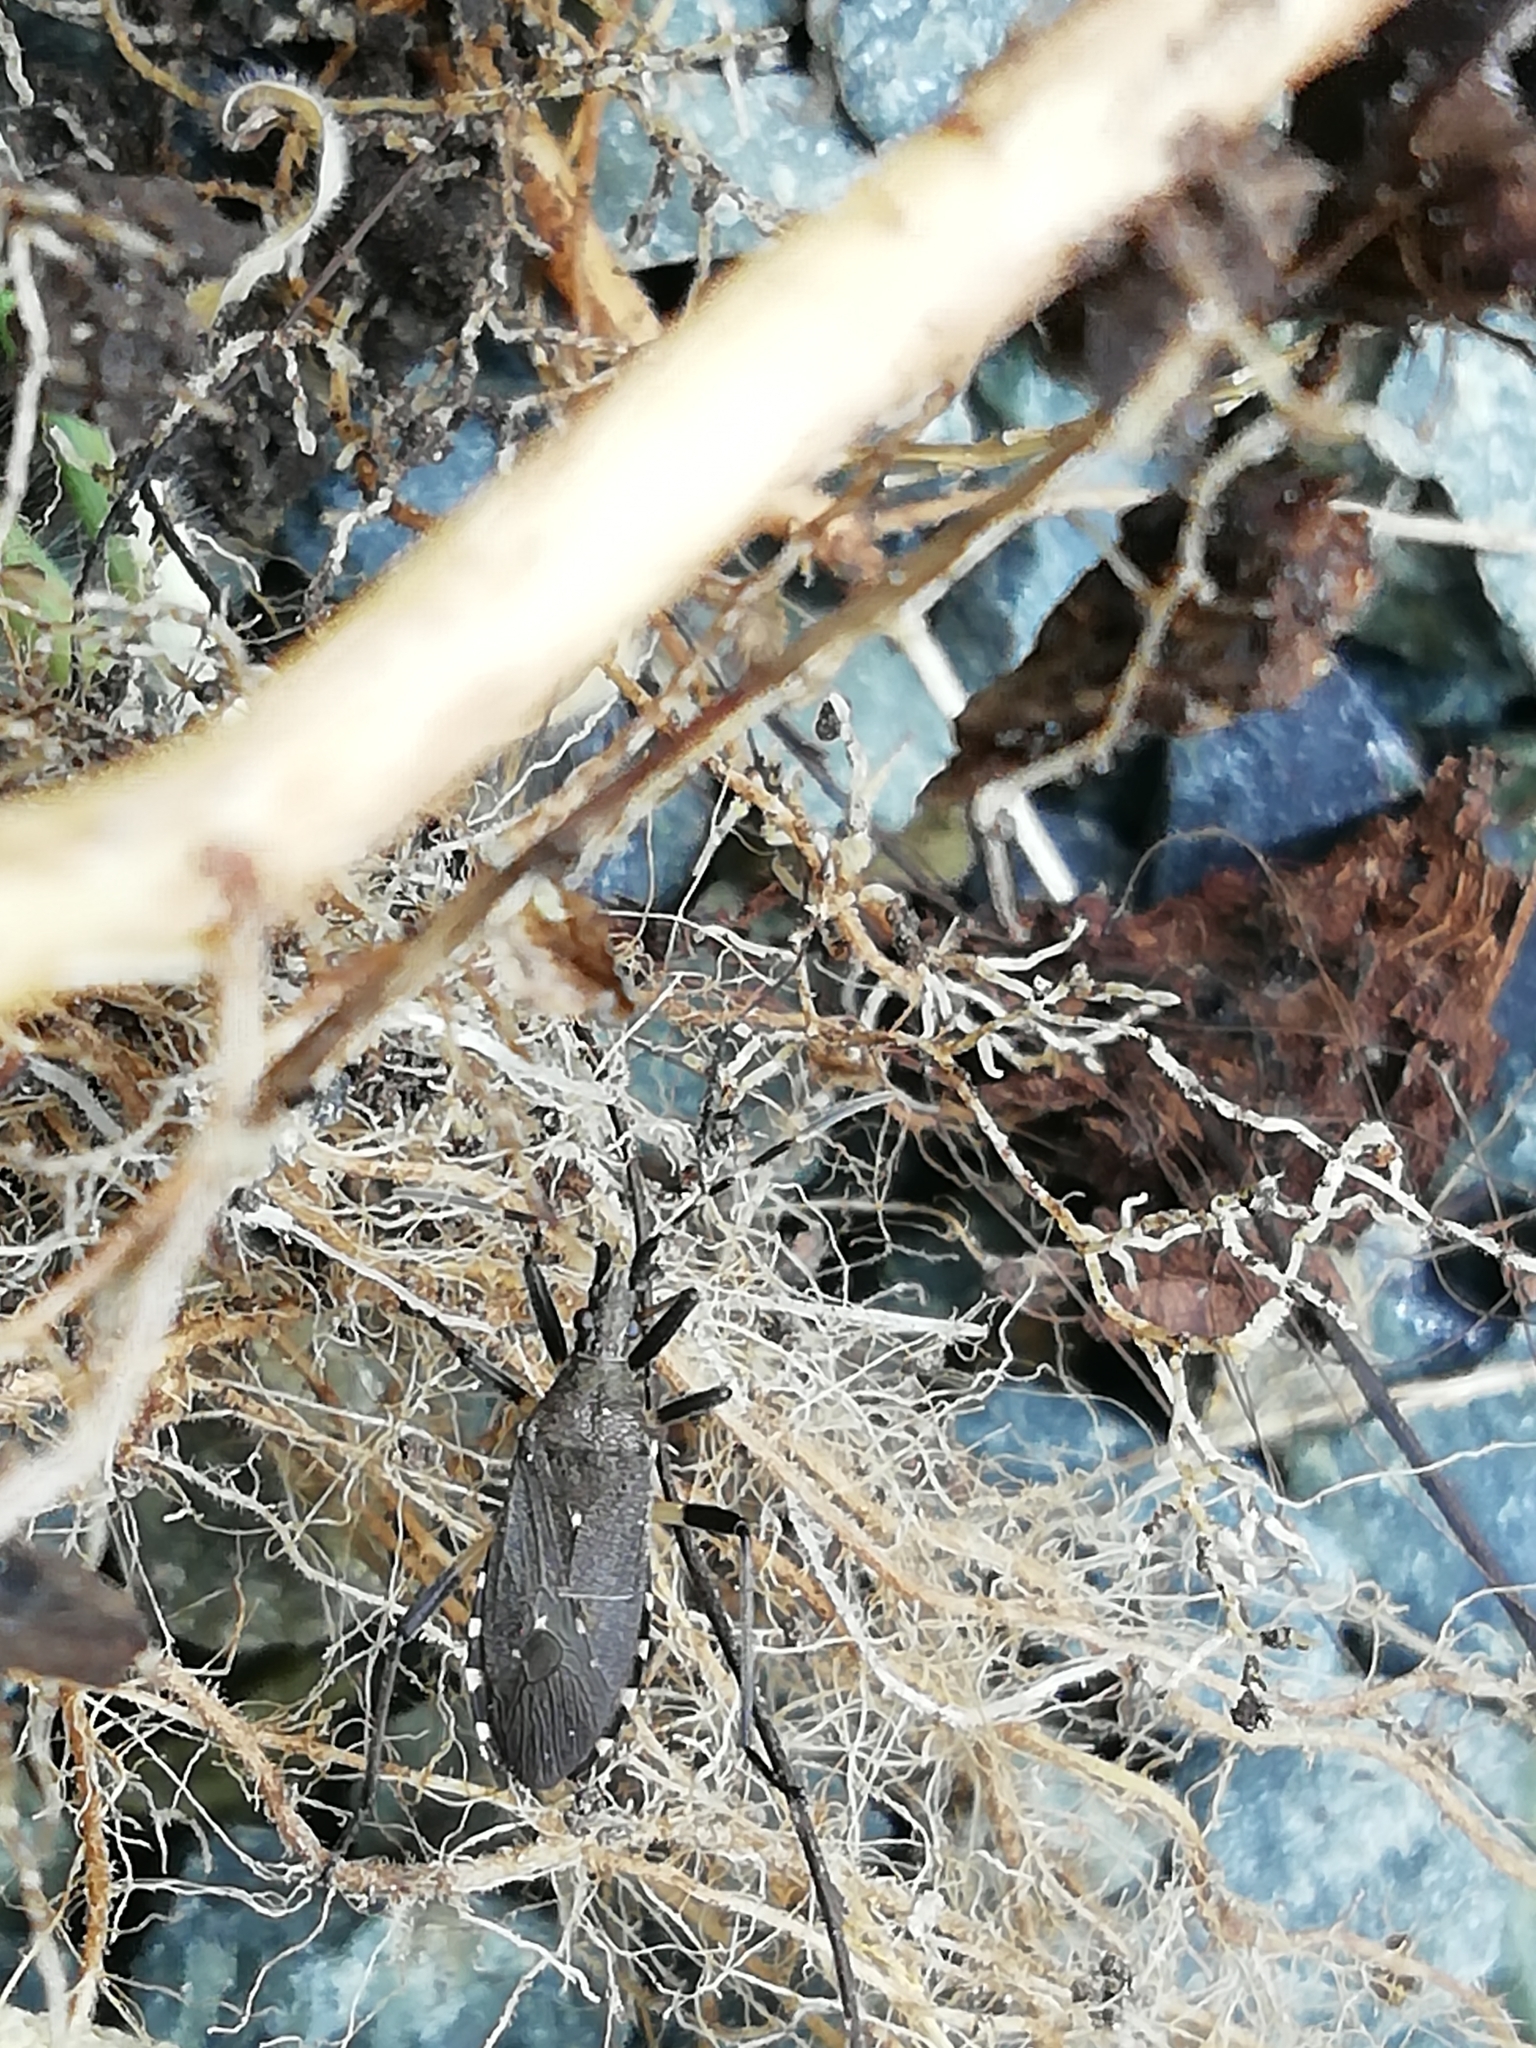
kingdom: Animalia
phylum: Arthropoda
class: Insecta
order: Hemiptera
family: Stenocephalidae
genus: Dicranocephalus
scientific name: Dicranocephalus agilis
